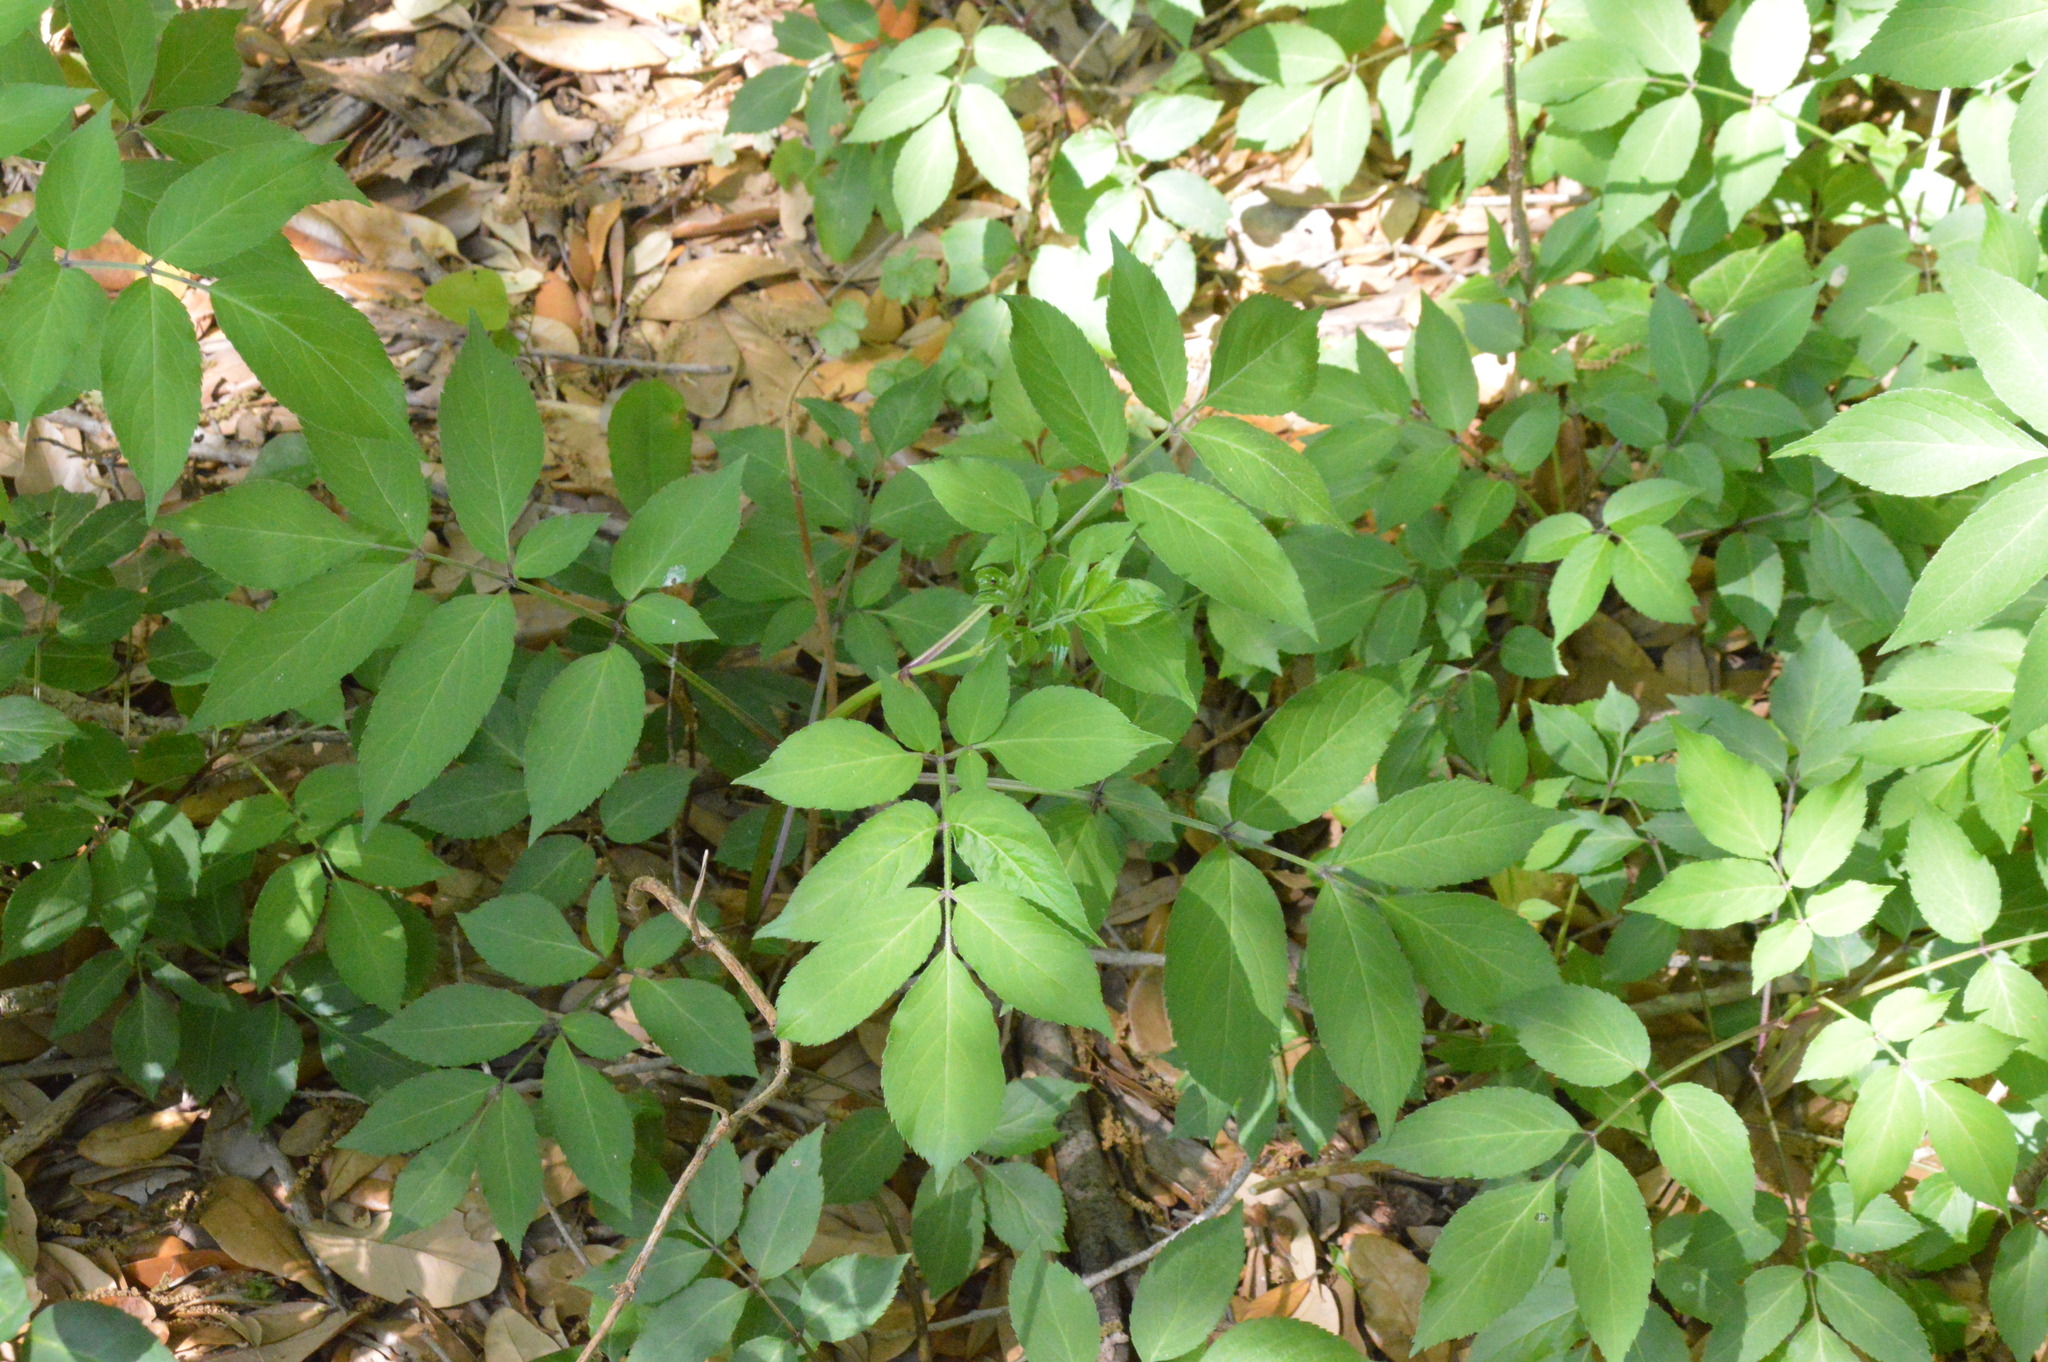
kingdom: Plantae
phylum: Tracheophyta
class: Magnoliopsida
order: Dipsacales
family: Viburnaceae
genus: Sambucus
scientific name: Sambucus canadensis
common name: American elder
